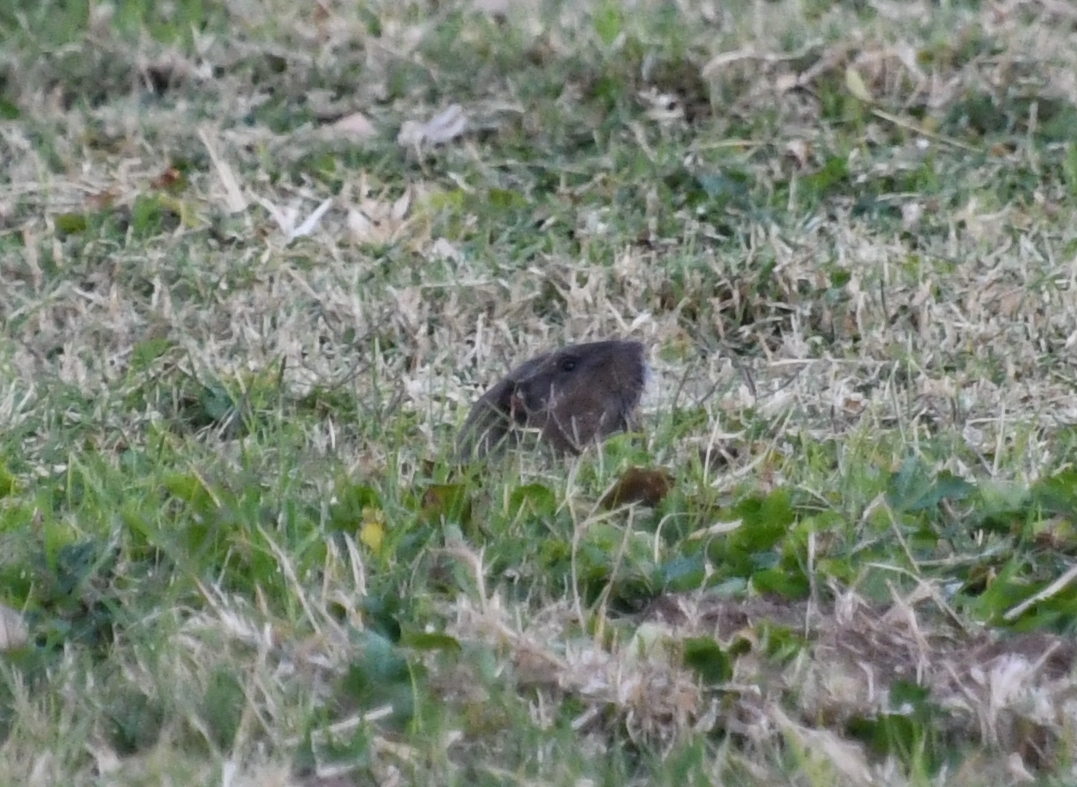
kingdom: Animalia
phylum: Chordata
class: Mammalia
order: Rodentia
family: Geomyidae
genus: Thomomys
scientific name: Thomomys bottae
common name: Botta's pocket gopher
